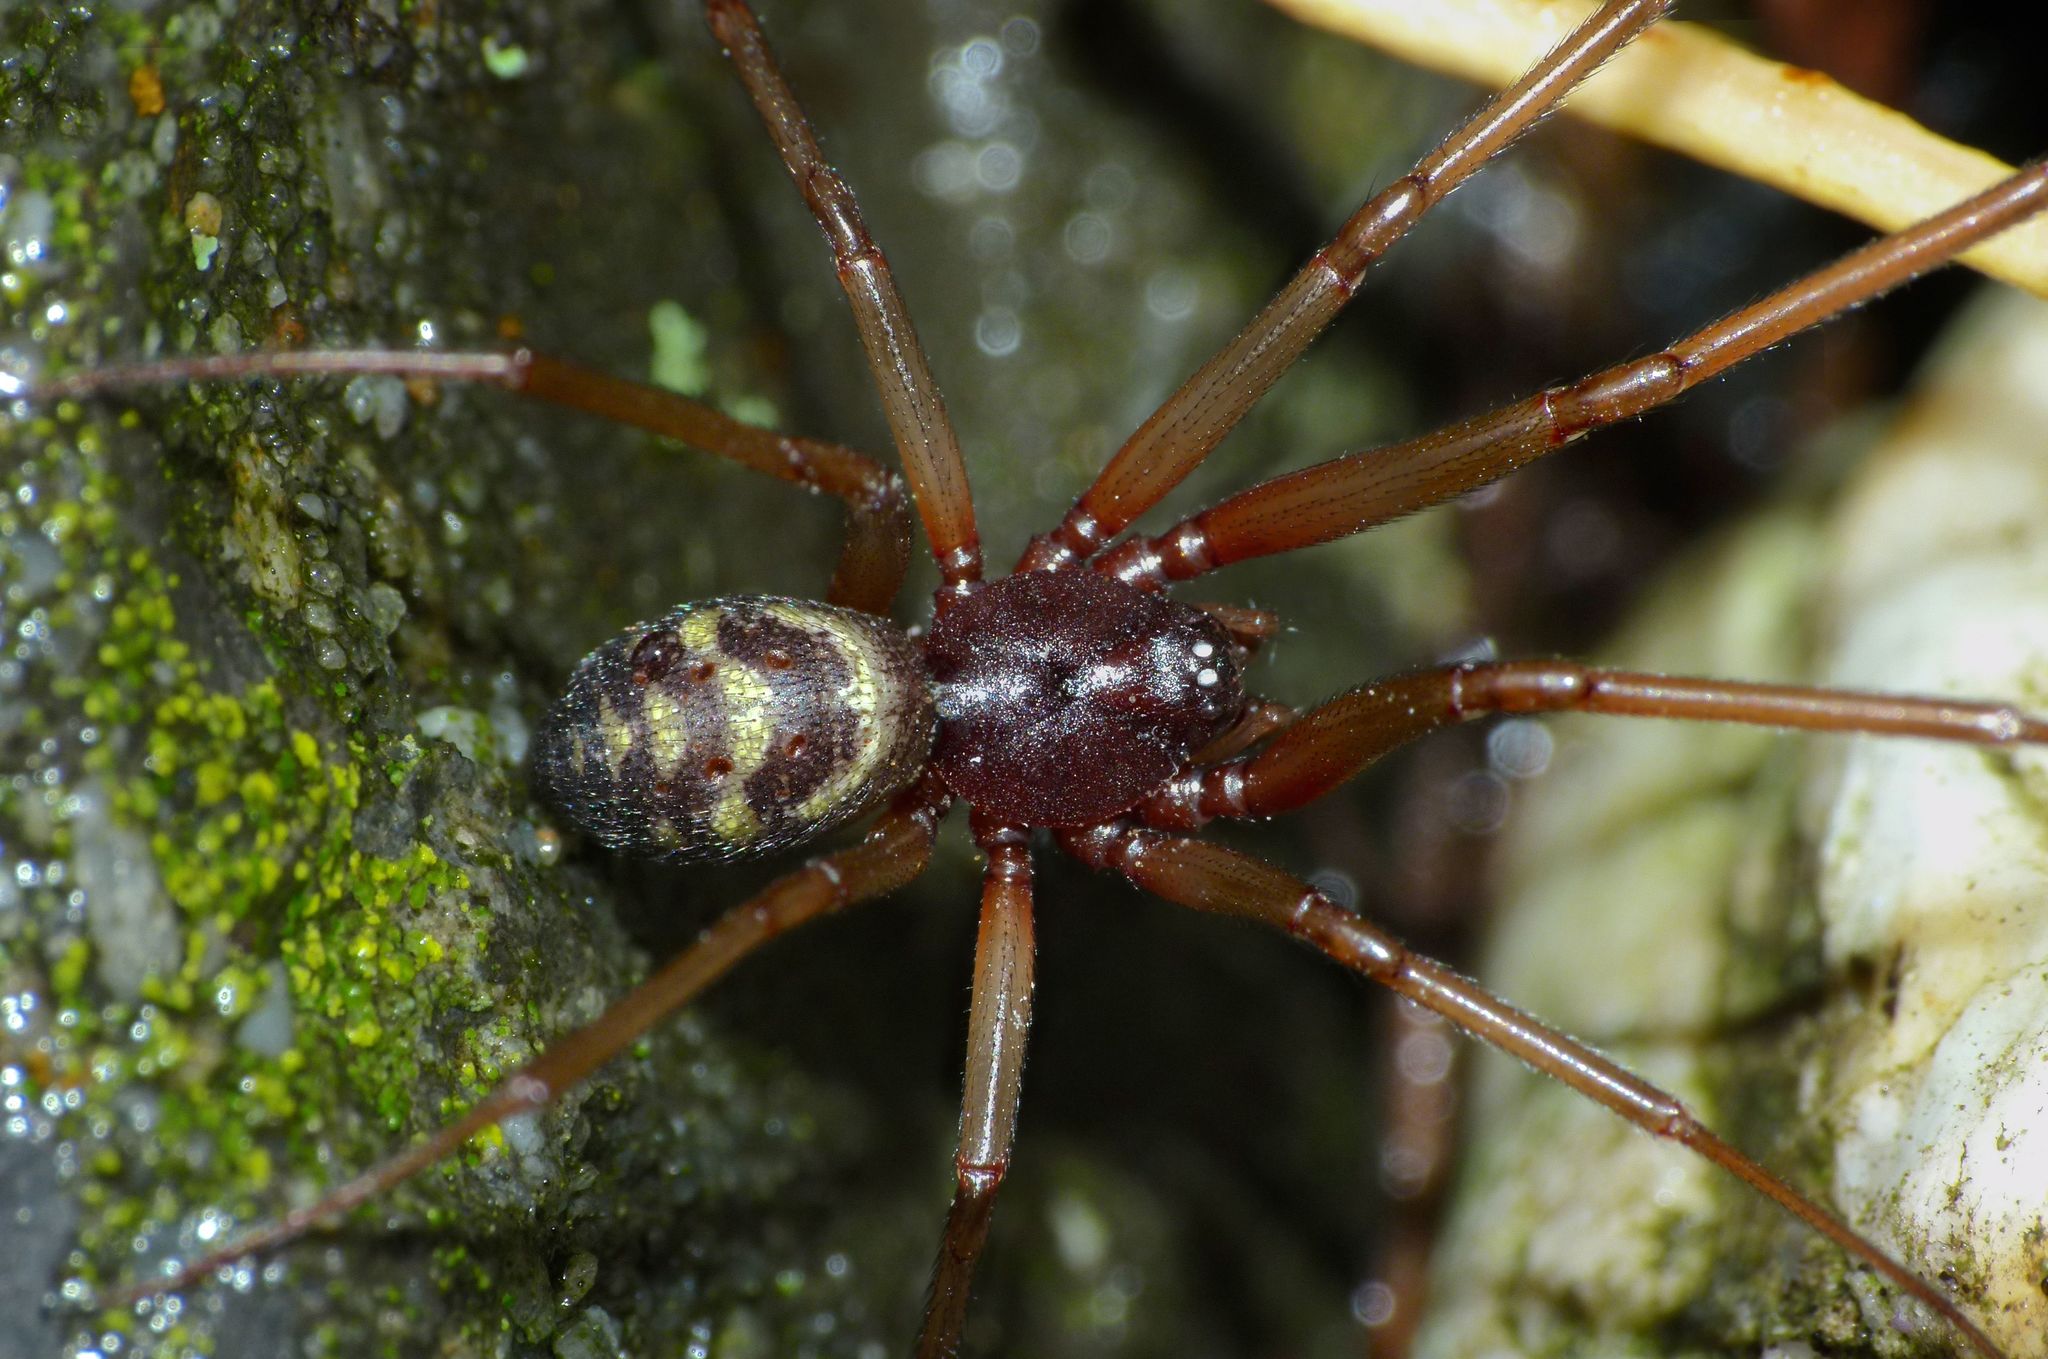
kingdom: Animalia
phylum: Arthropoda
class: Arachnida
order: Araneae
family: Theridiidae
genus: Steatoda
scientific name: Steatoda grossa
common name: False black widow
